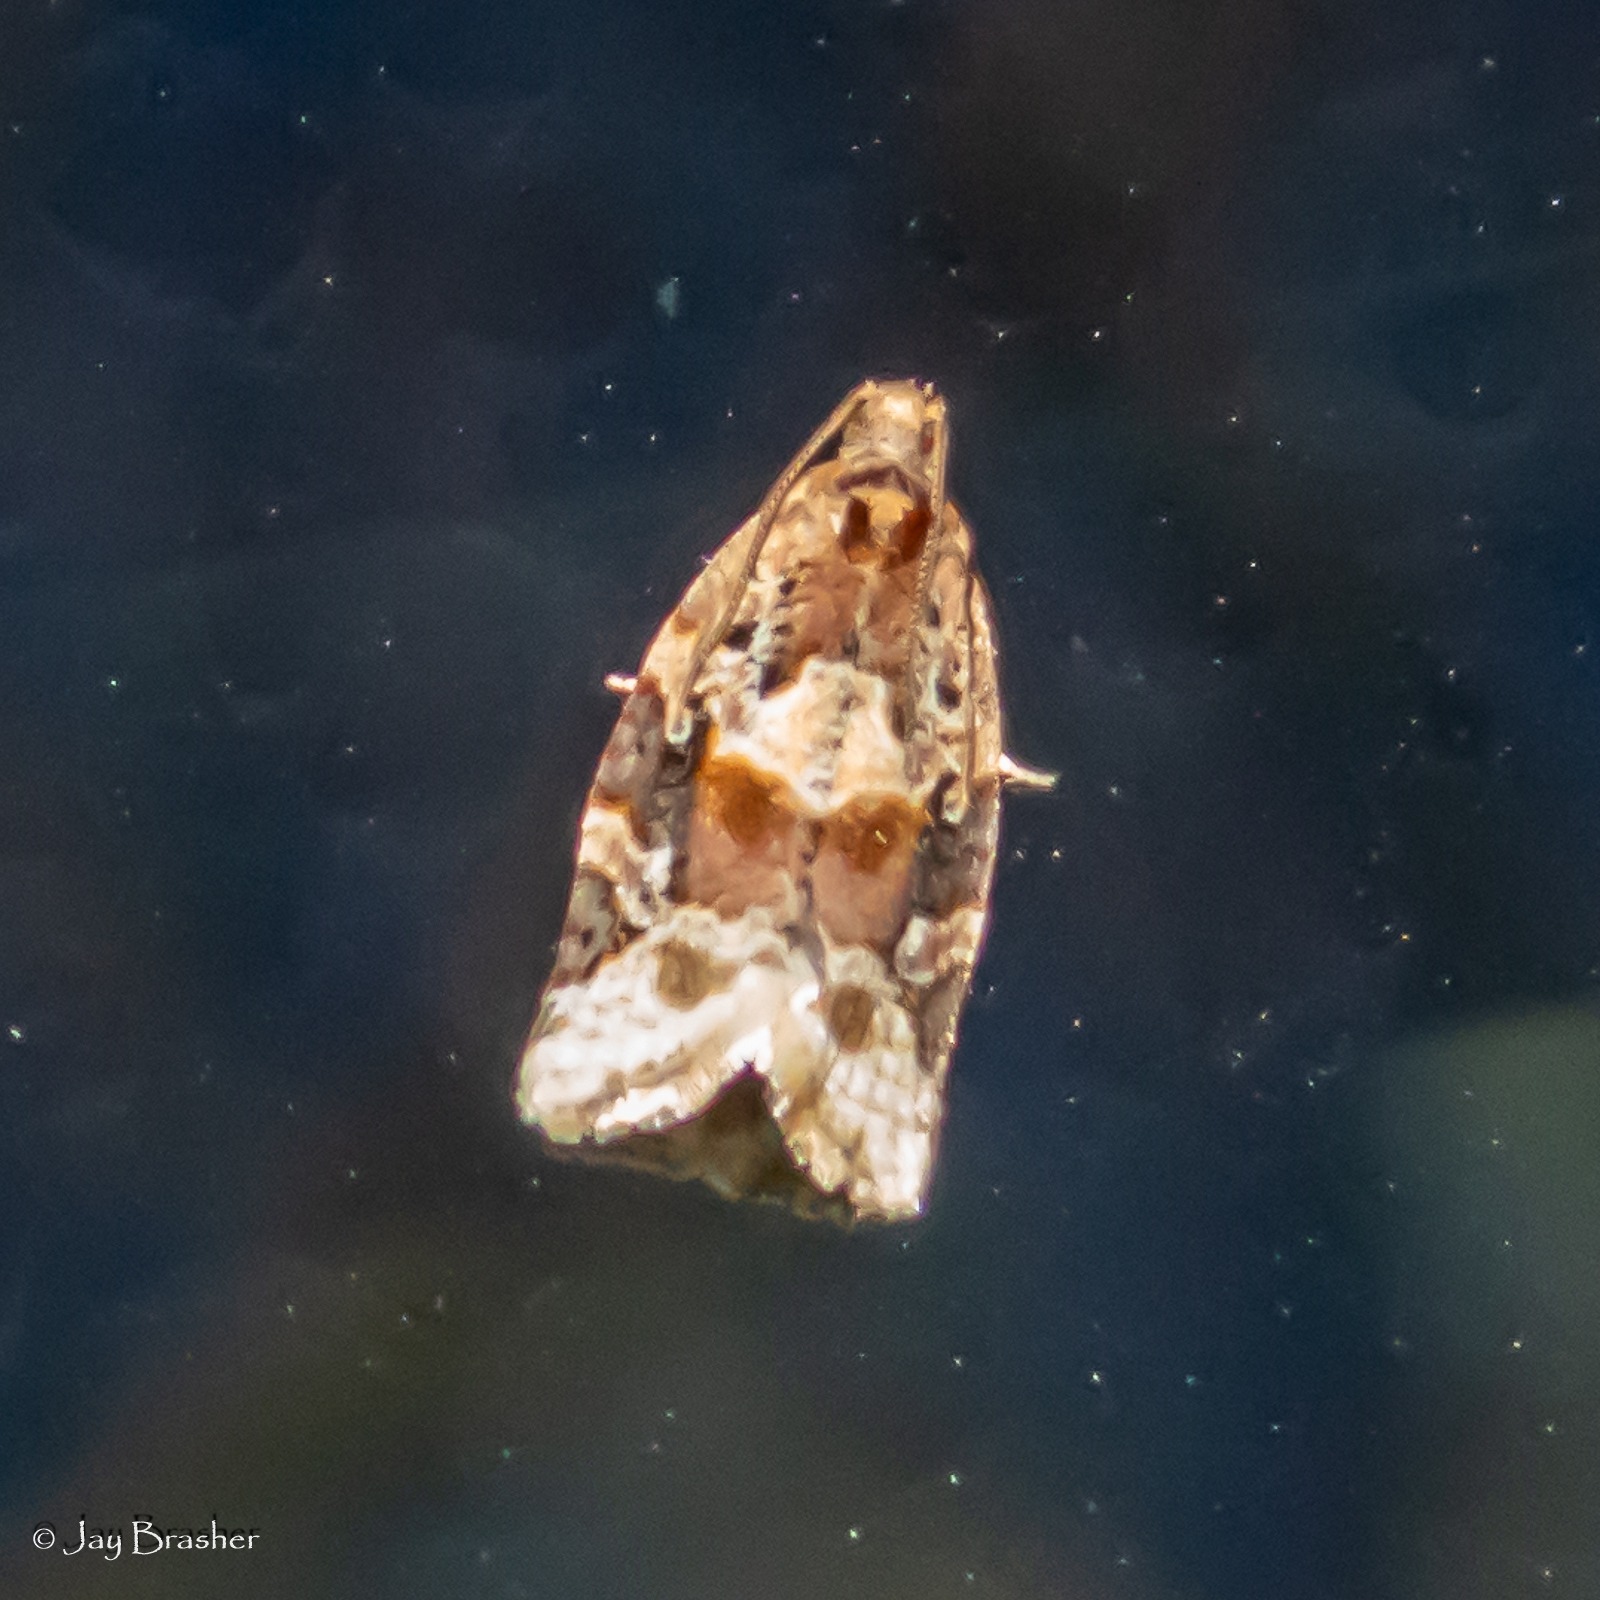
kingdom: Animalia
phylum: Arthropoda
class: Insecta
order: Lepidoptera
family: Tortricidae
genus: Argyrotaenia
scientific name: Argyrotaenia velutinana
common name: Red-banded leafroller moth
